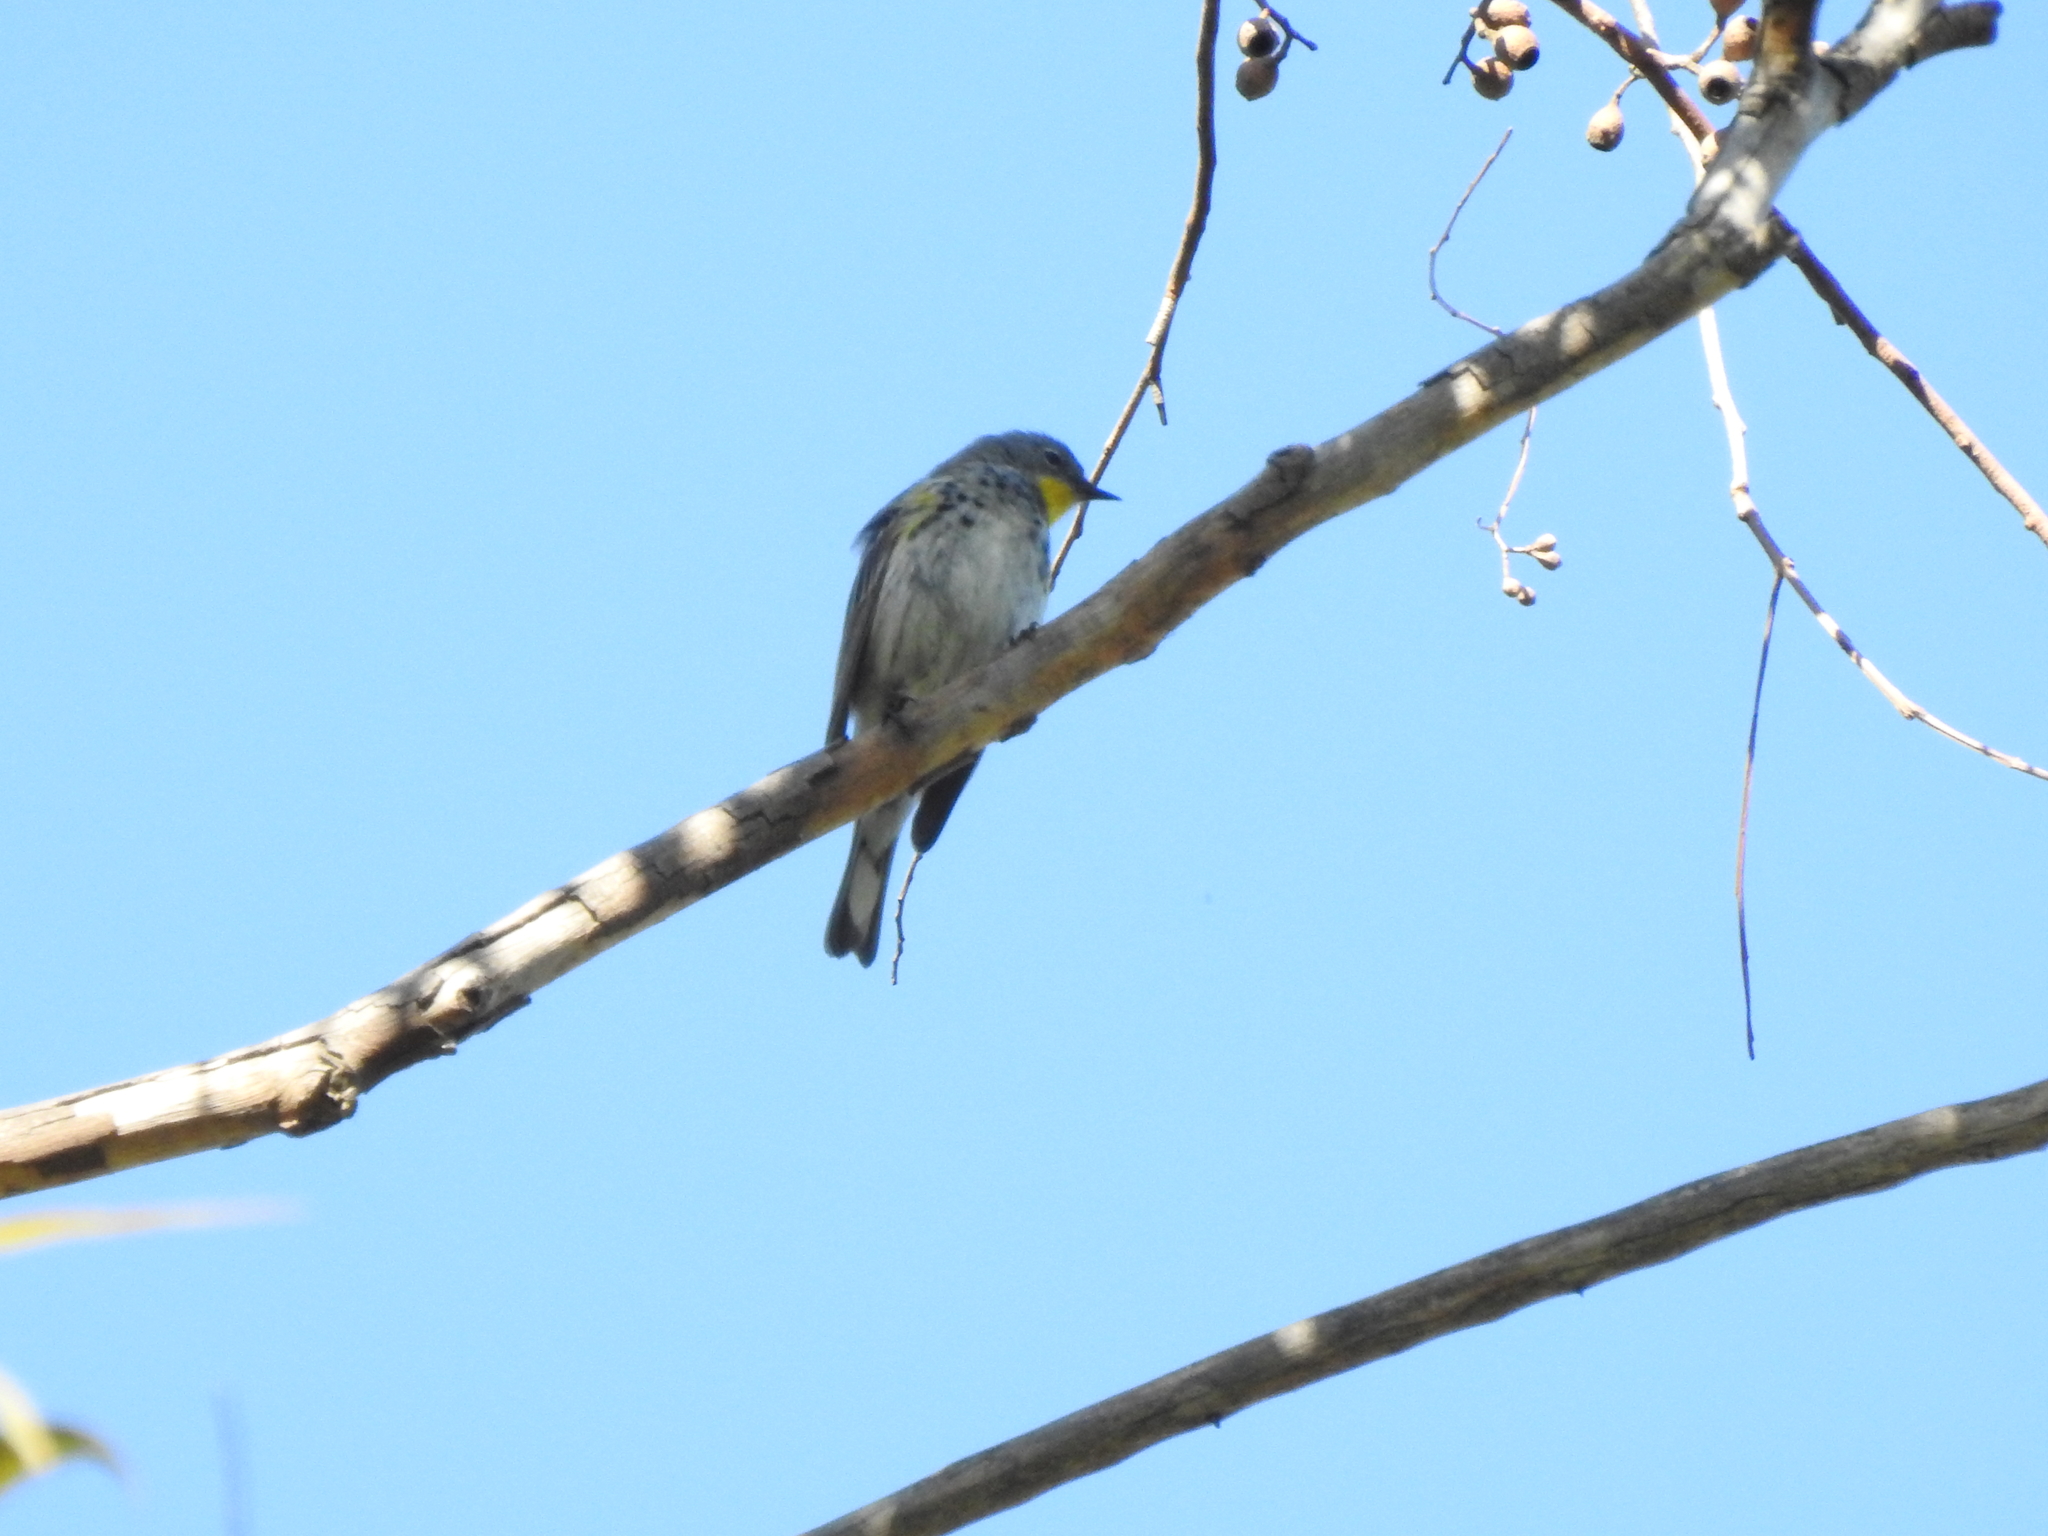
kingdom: Animalia
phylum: Chordata
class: Aves
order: Passeriformes
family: Parulidae
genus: Setophaga
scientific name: Setophaga auduboni
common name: Audubon's warbler
